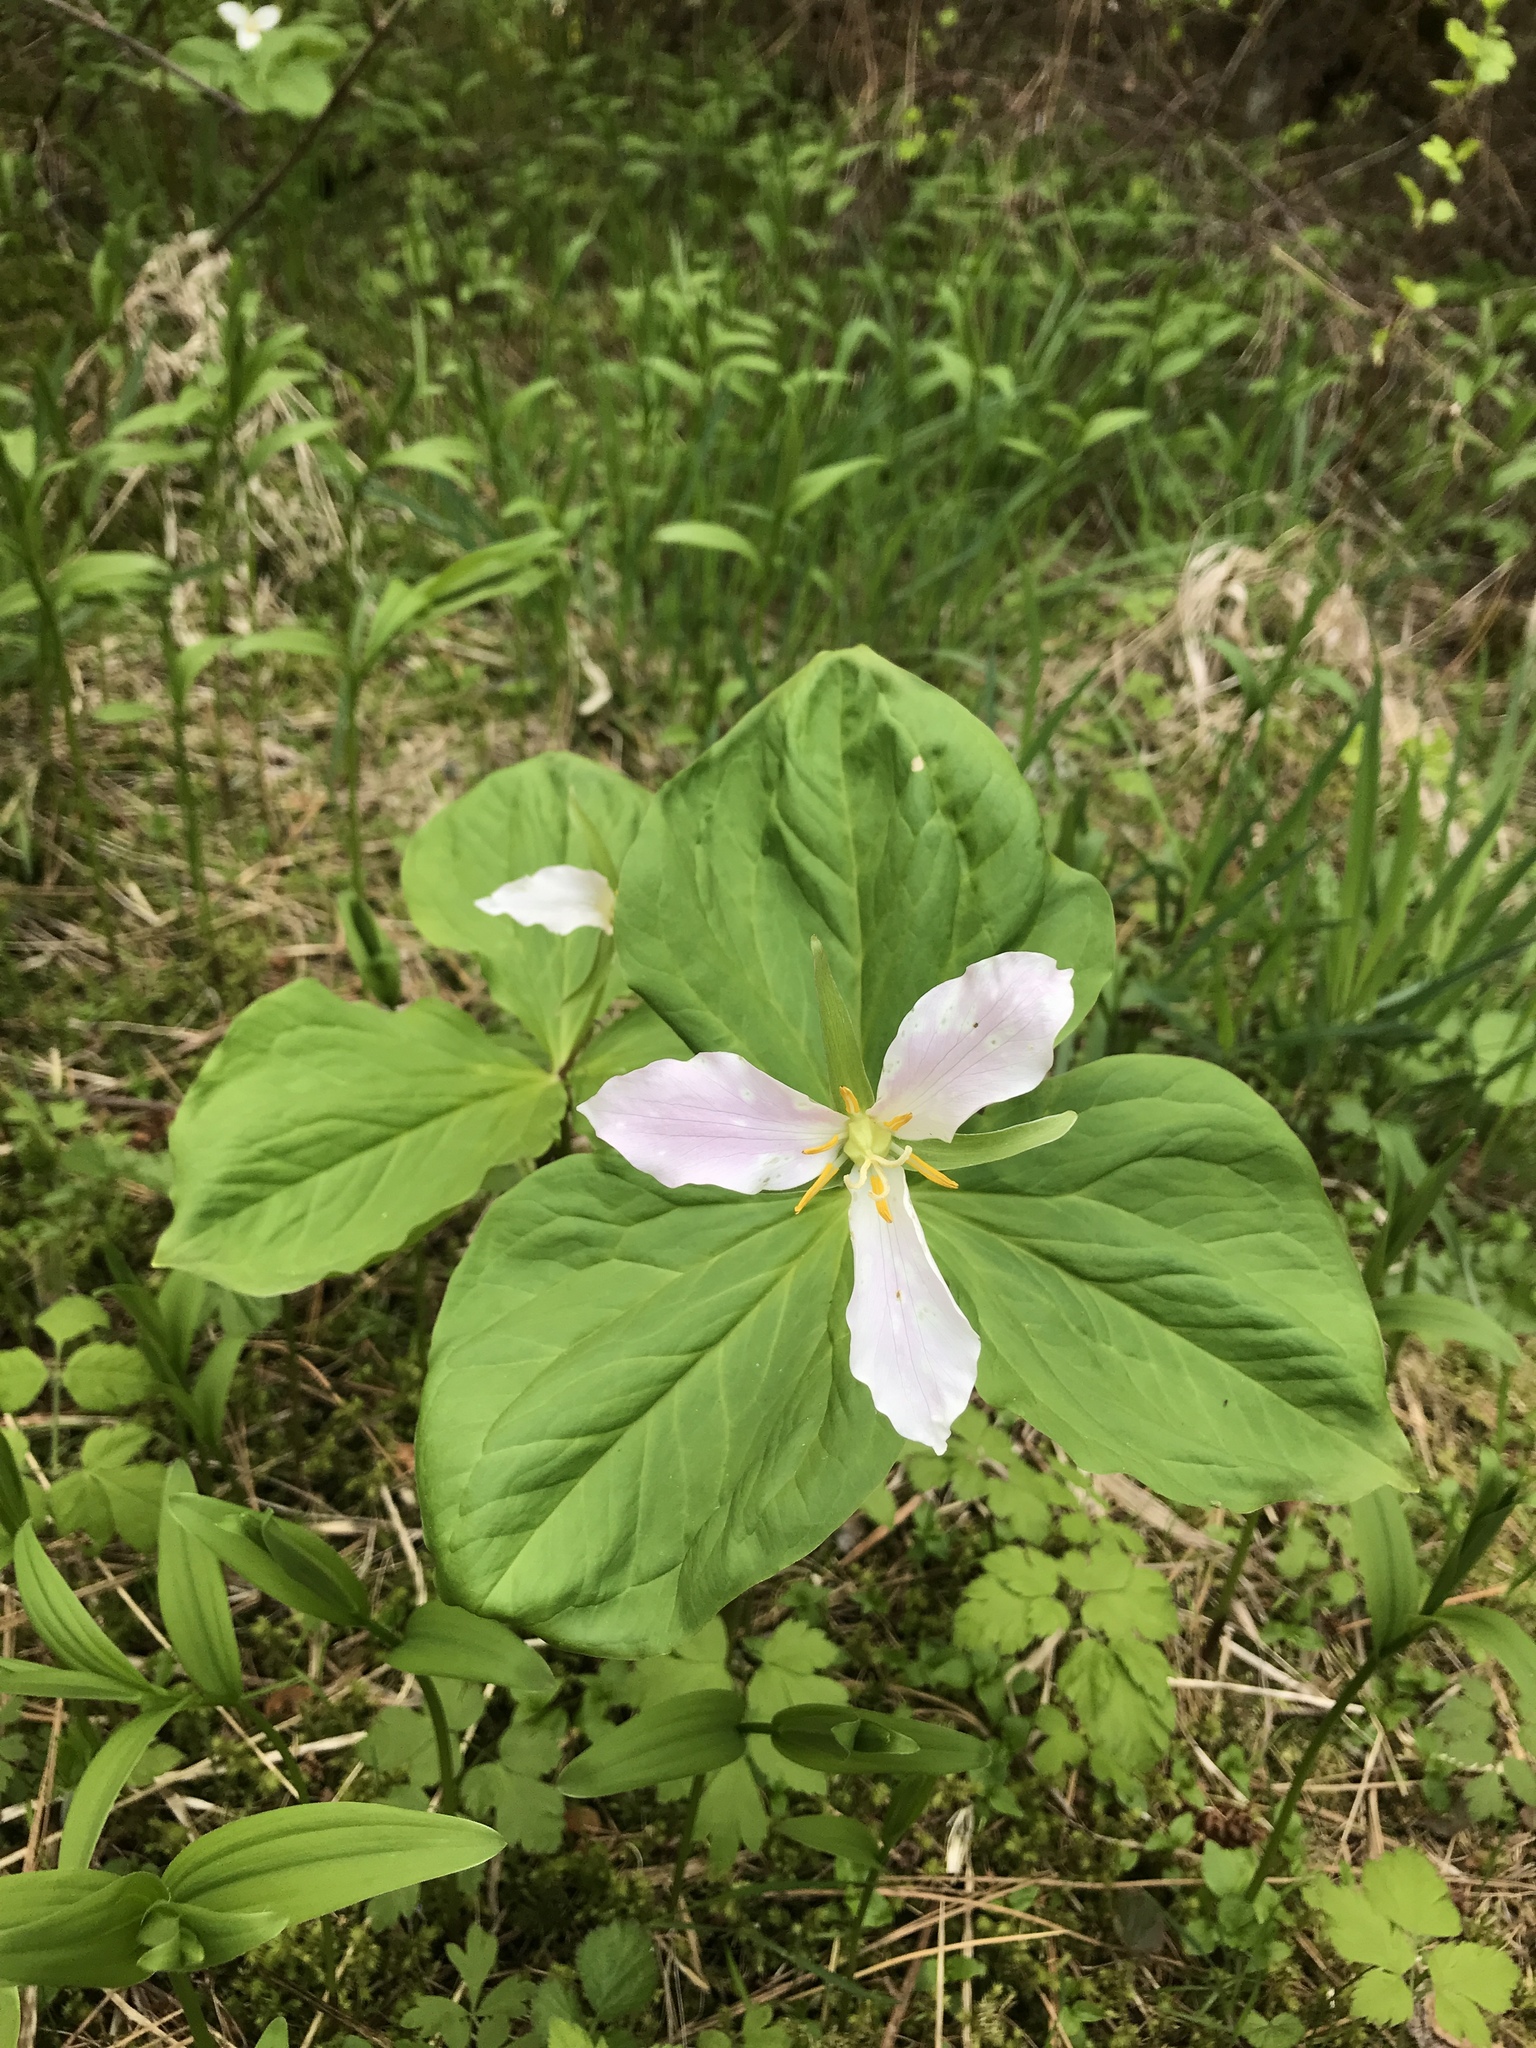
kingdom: Plantae
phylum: Tracheophyta
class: Liliopsida
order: Liliales
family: Melanthiaceae
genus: Trillium
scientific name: Trillium ovatum
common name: Pacific trillium
